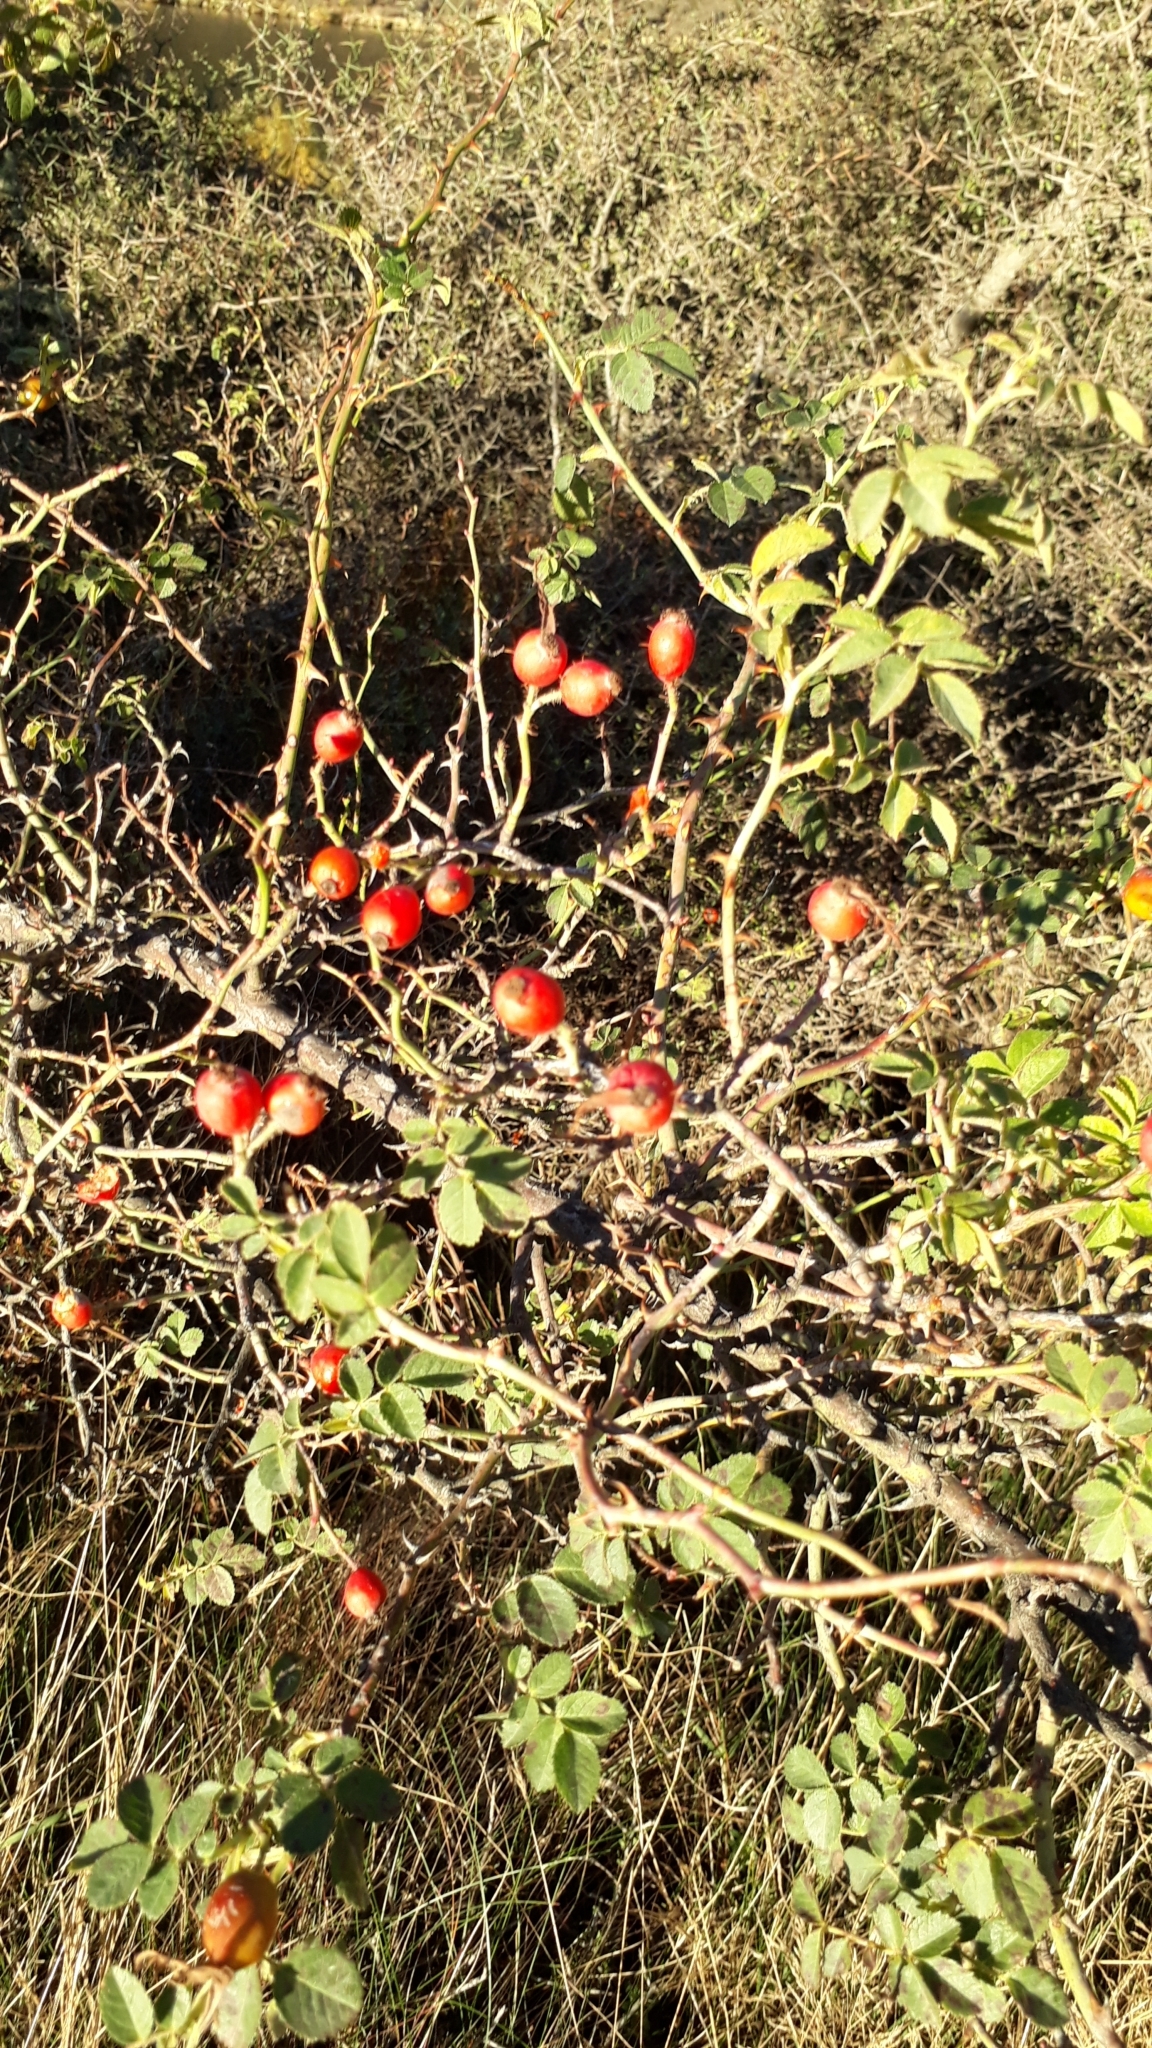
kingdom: Plantae
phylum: Tracheophyta
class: Magnoliopsida
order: Rosales
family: Rosaceae
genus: Rosa
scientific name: Rosa rubiginosa
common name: Sweet-briar
